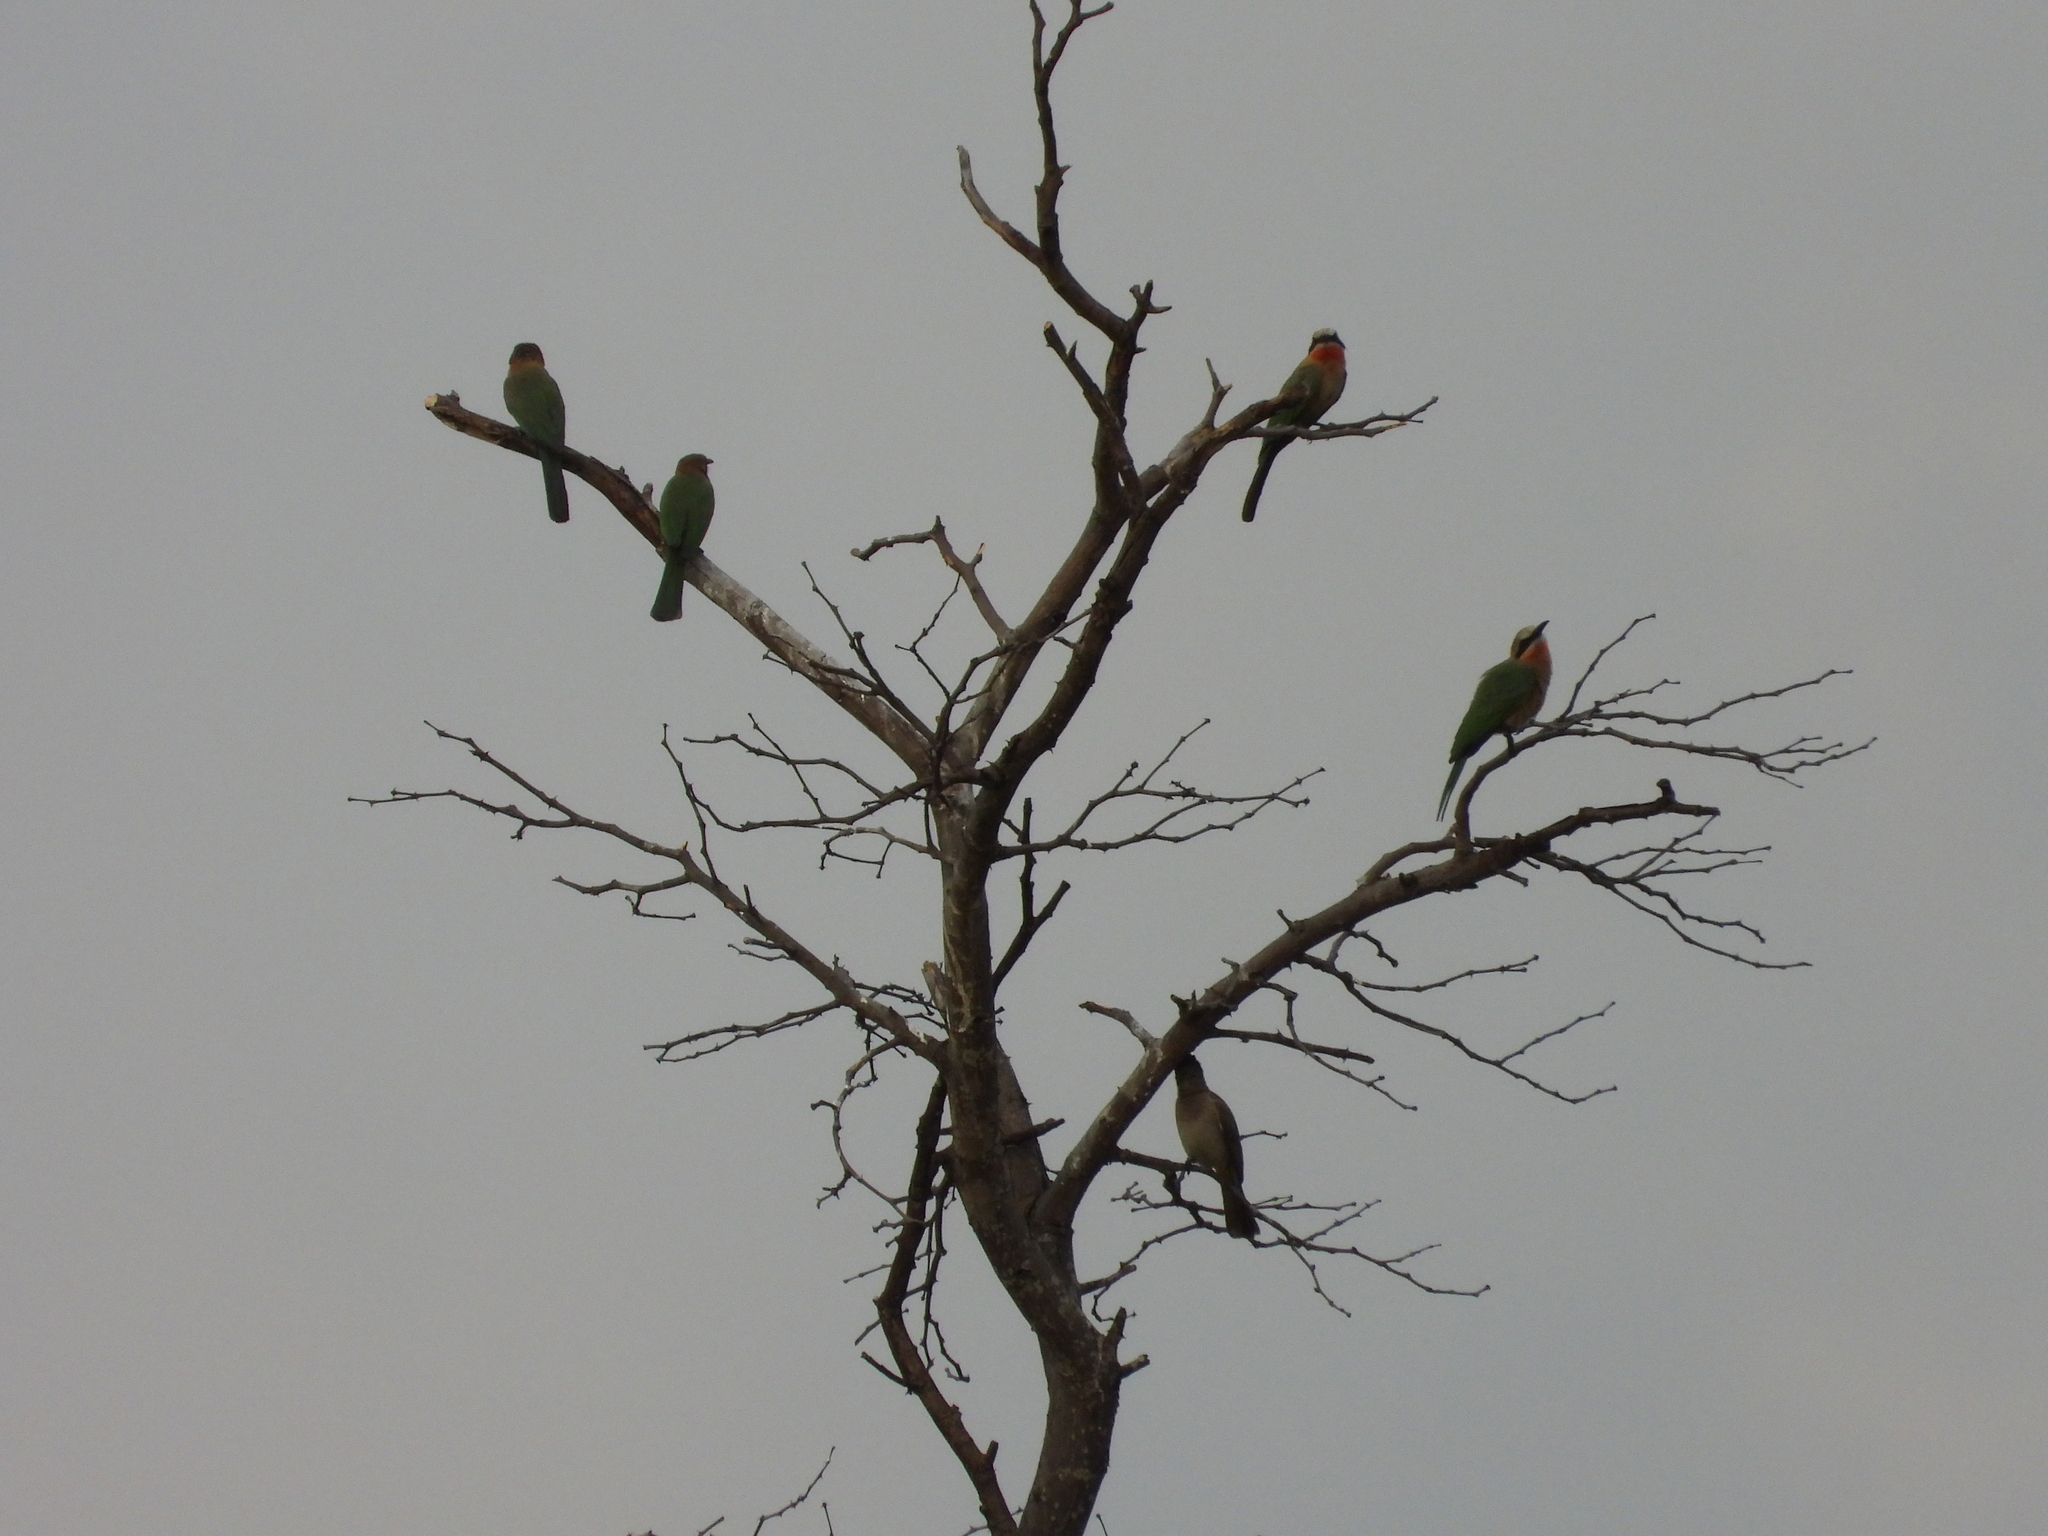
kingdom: Animalia
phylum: Chordata
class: Aves
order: Coraciiformes
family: Meropidae
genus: Merops
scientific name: Merops bullockoides
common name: White-fronted bee-eater
